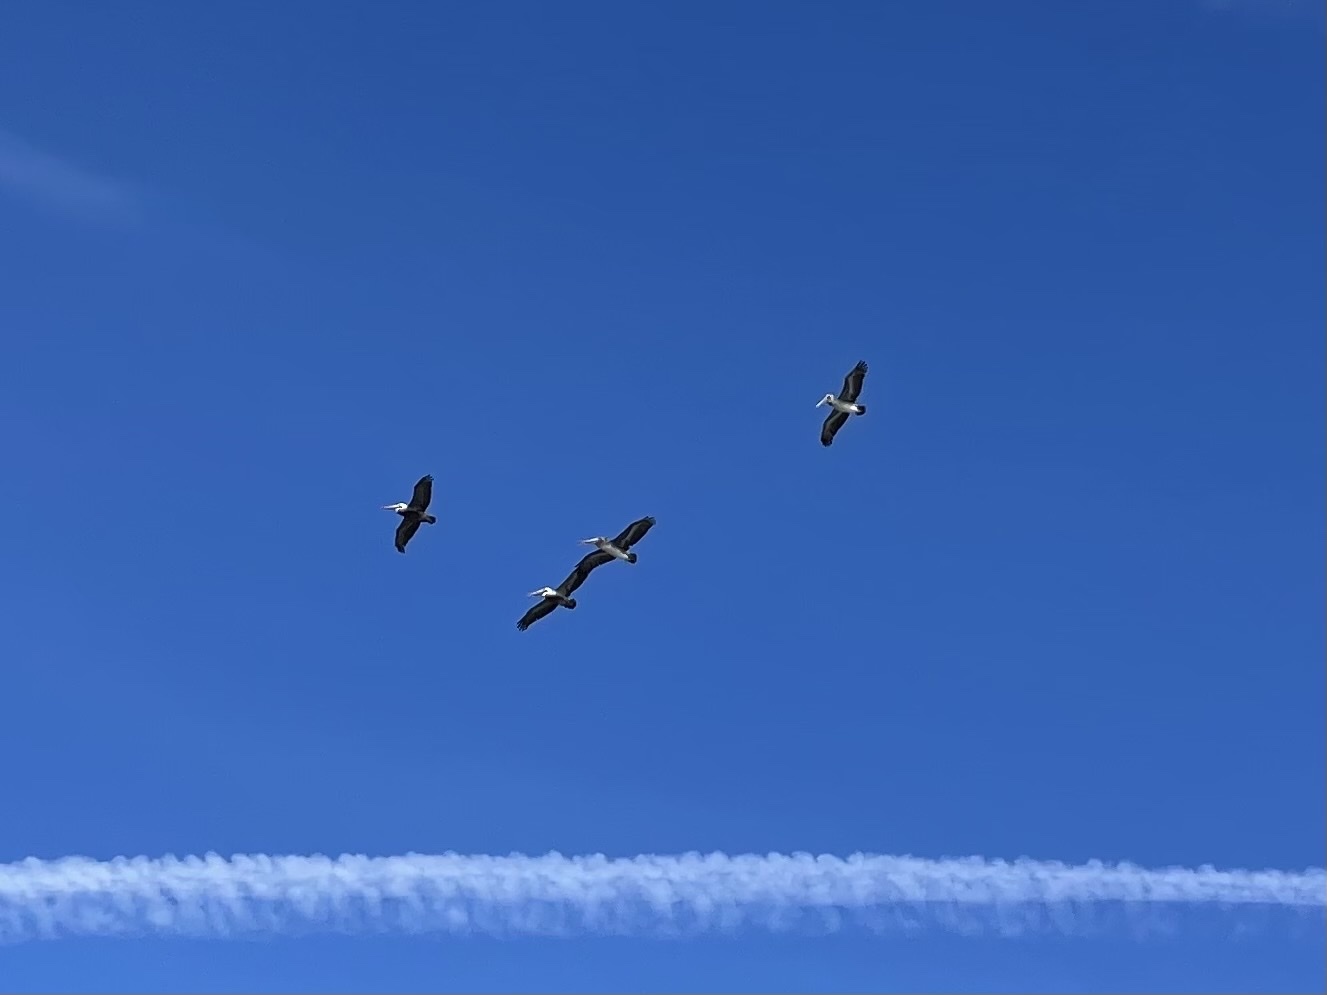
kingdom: Animalia
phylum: Chordata
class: Aves
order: Pelecaniformes
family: Pelecanidae
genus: Pelecanus
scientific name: Pelecanus occidentalis
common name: Brown pelican
